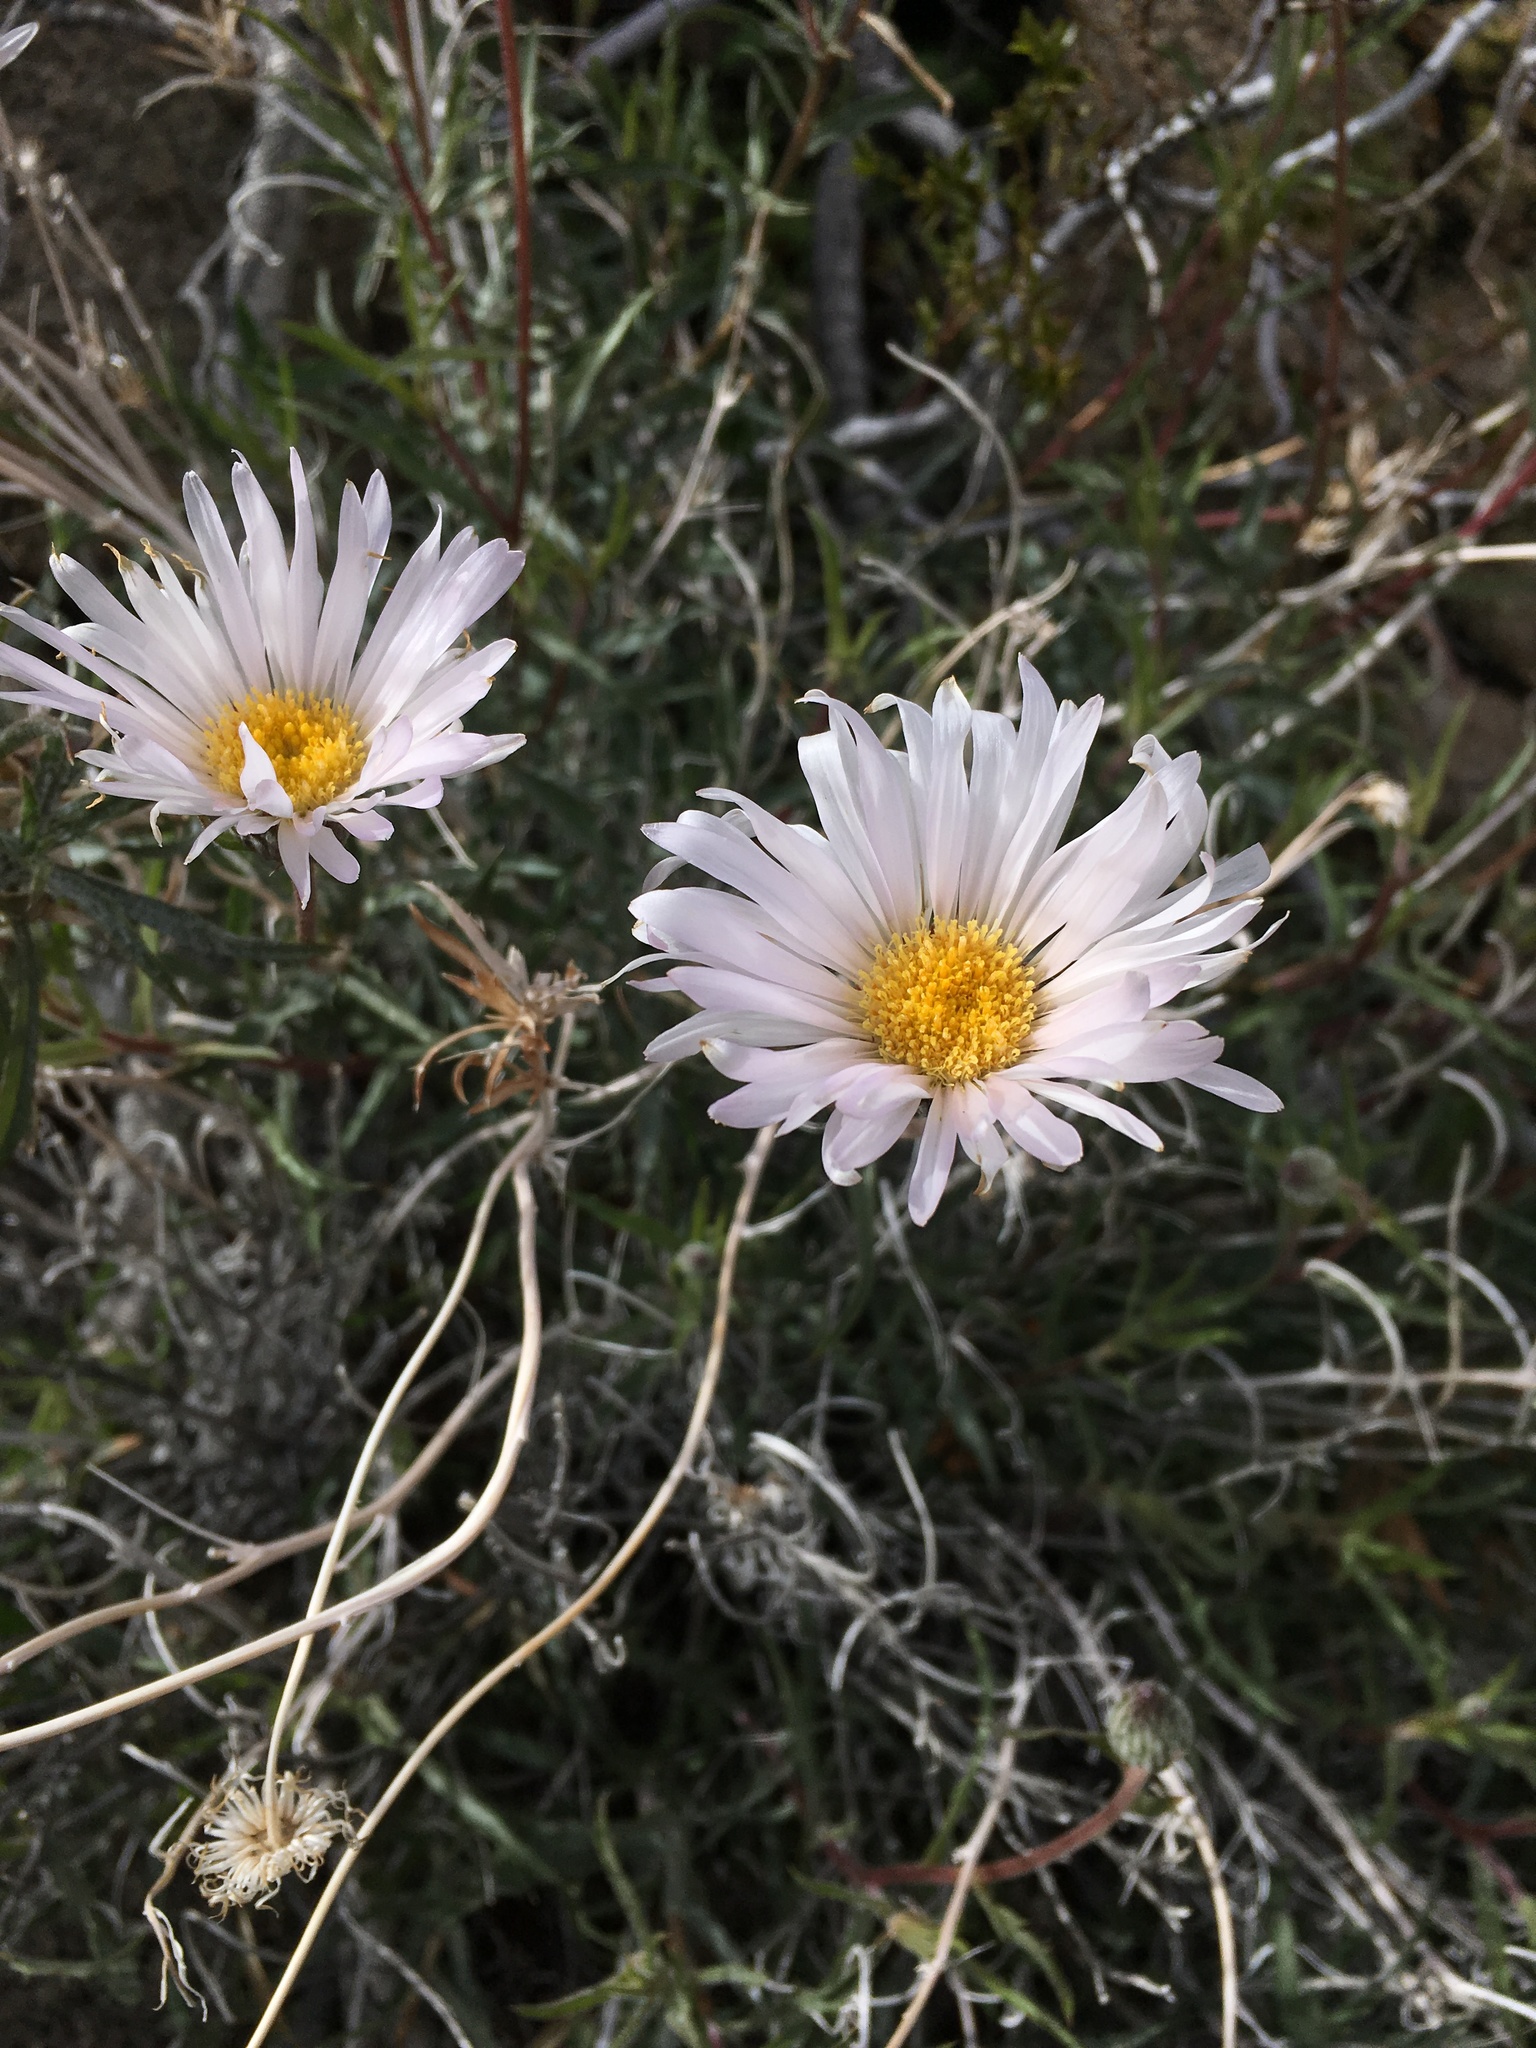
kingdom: Plantae
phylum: Tracheophyta
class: Magnoliopsida
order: Asterales
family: Asteraceae
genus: Xylorhiza
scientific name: Xylorhiza tortifolia
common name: Hurt-leaf woody-aster
